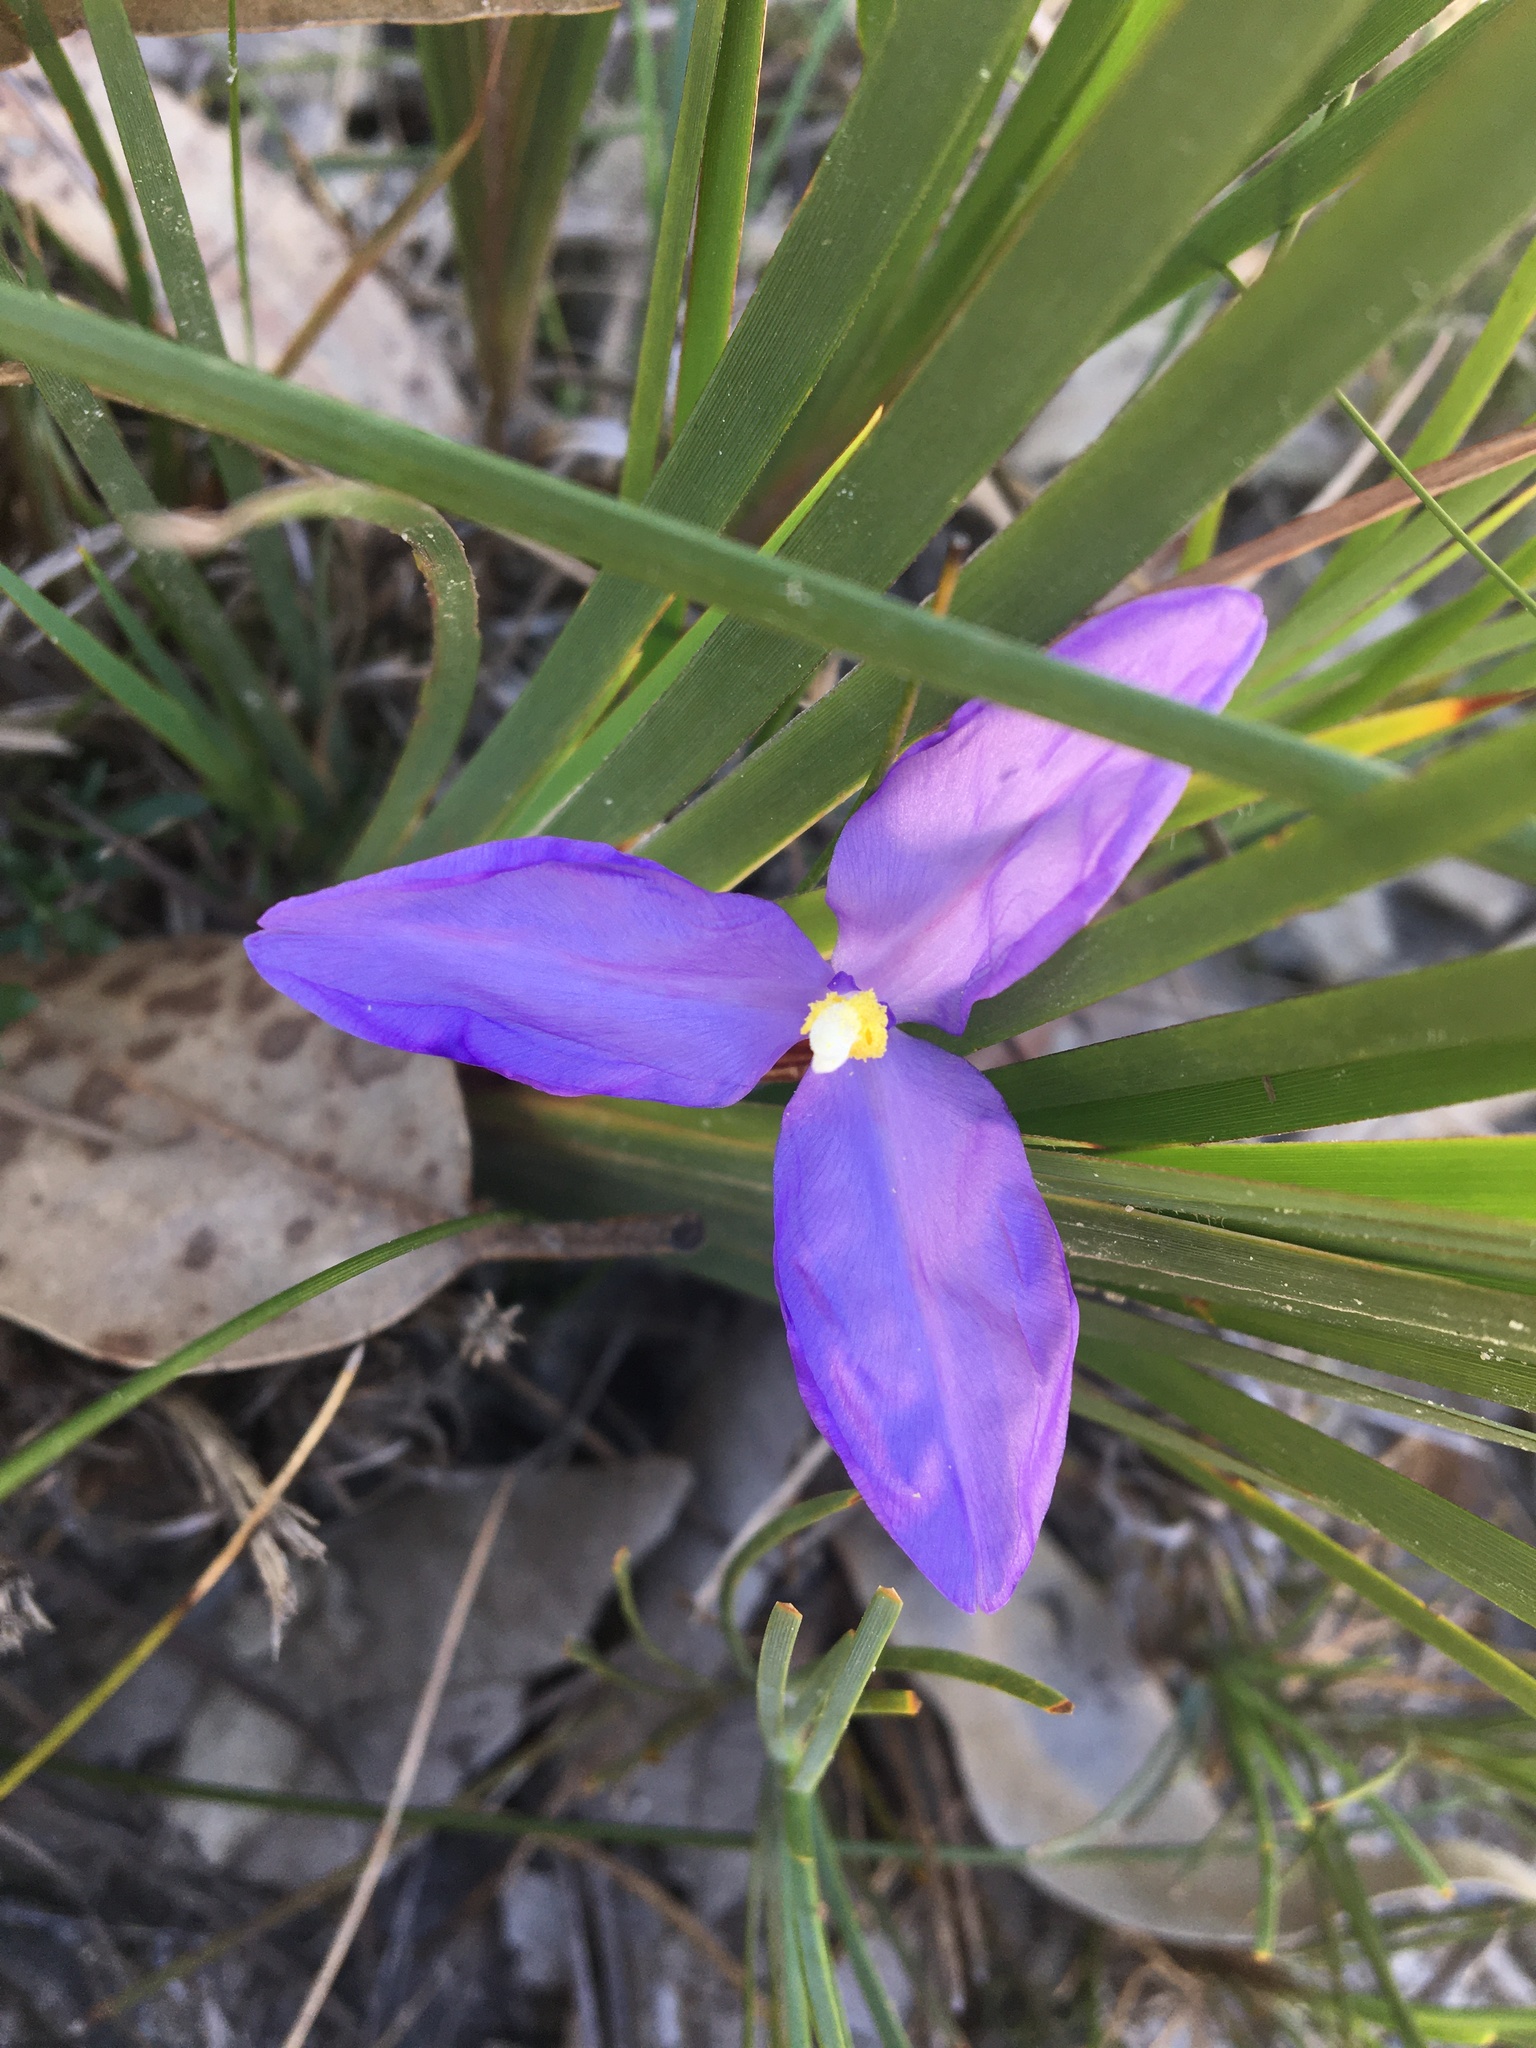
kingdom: Plantae
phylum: Tracheophyta
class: Liliopsida
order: Asparagales
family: Iridaceae
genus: Patersonia
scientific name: Patersonia glabrata
